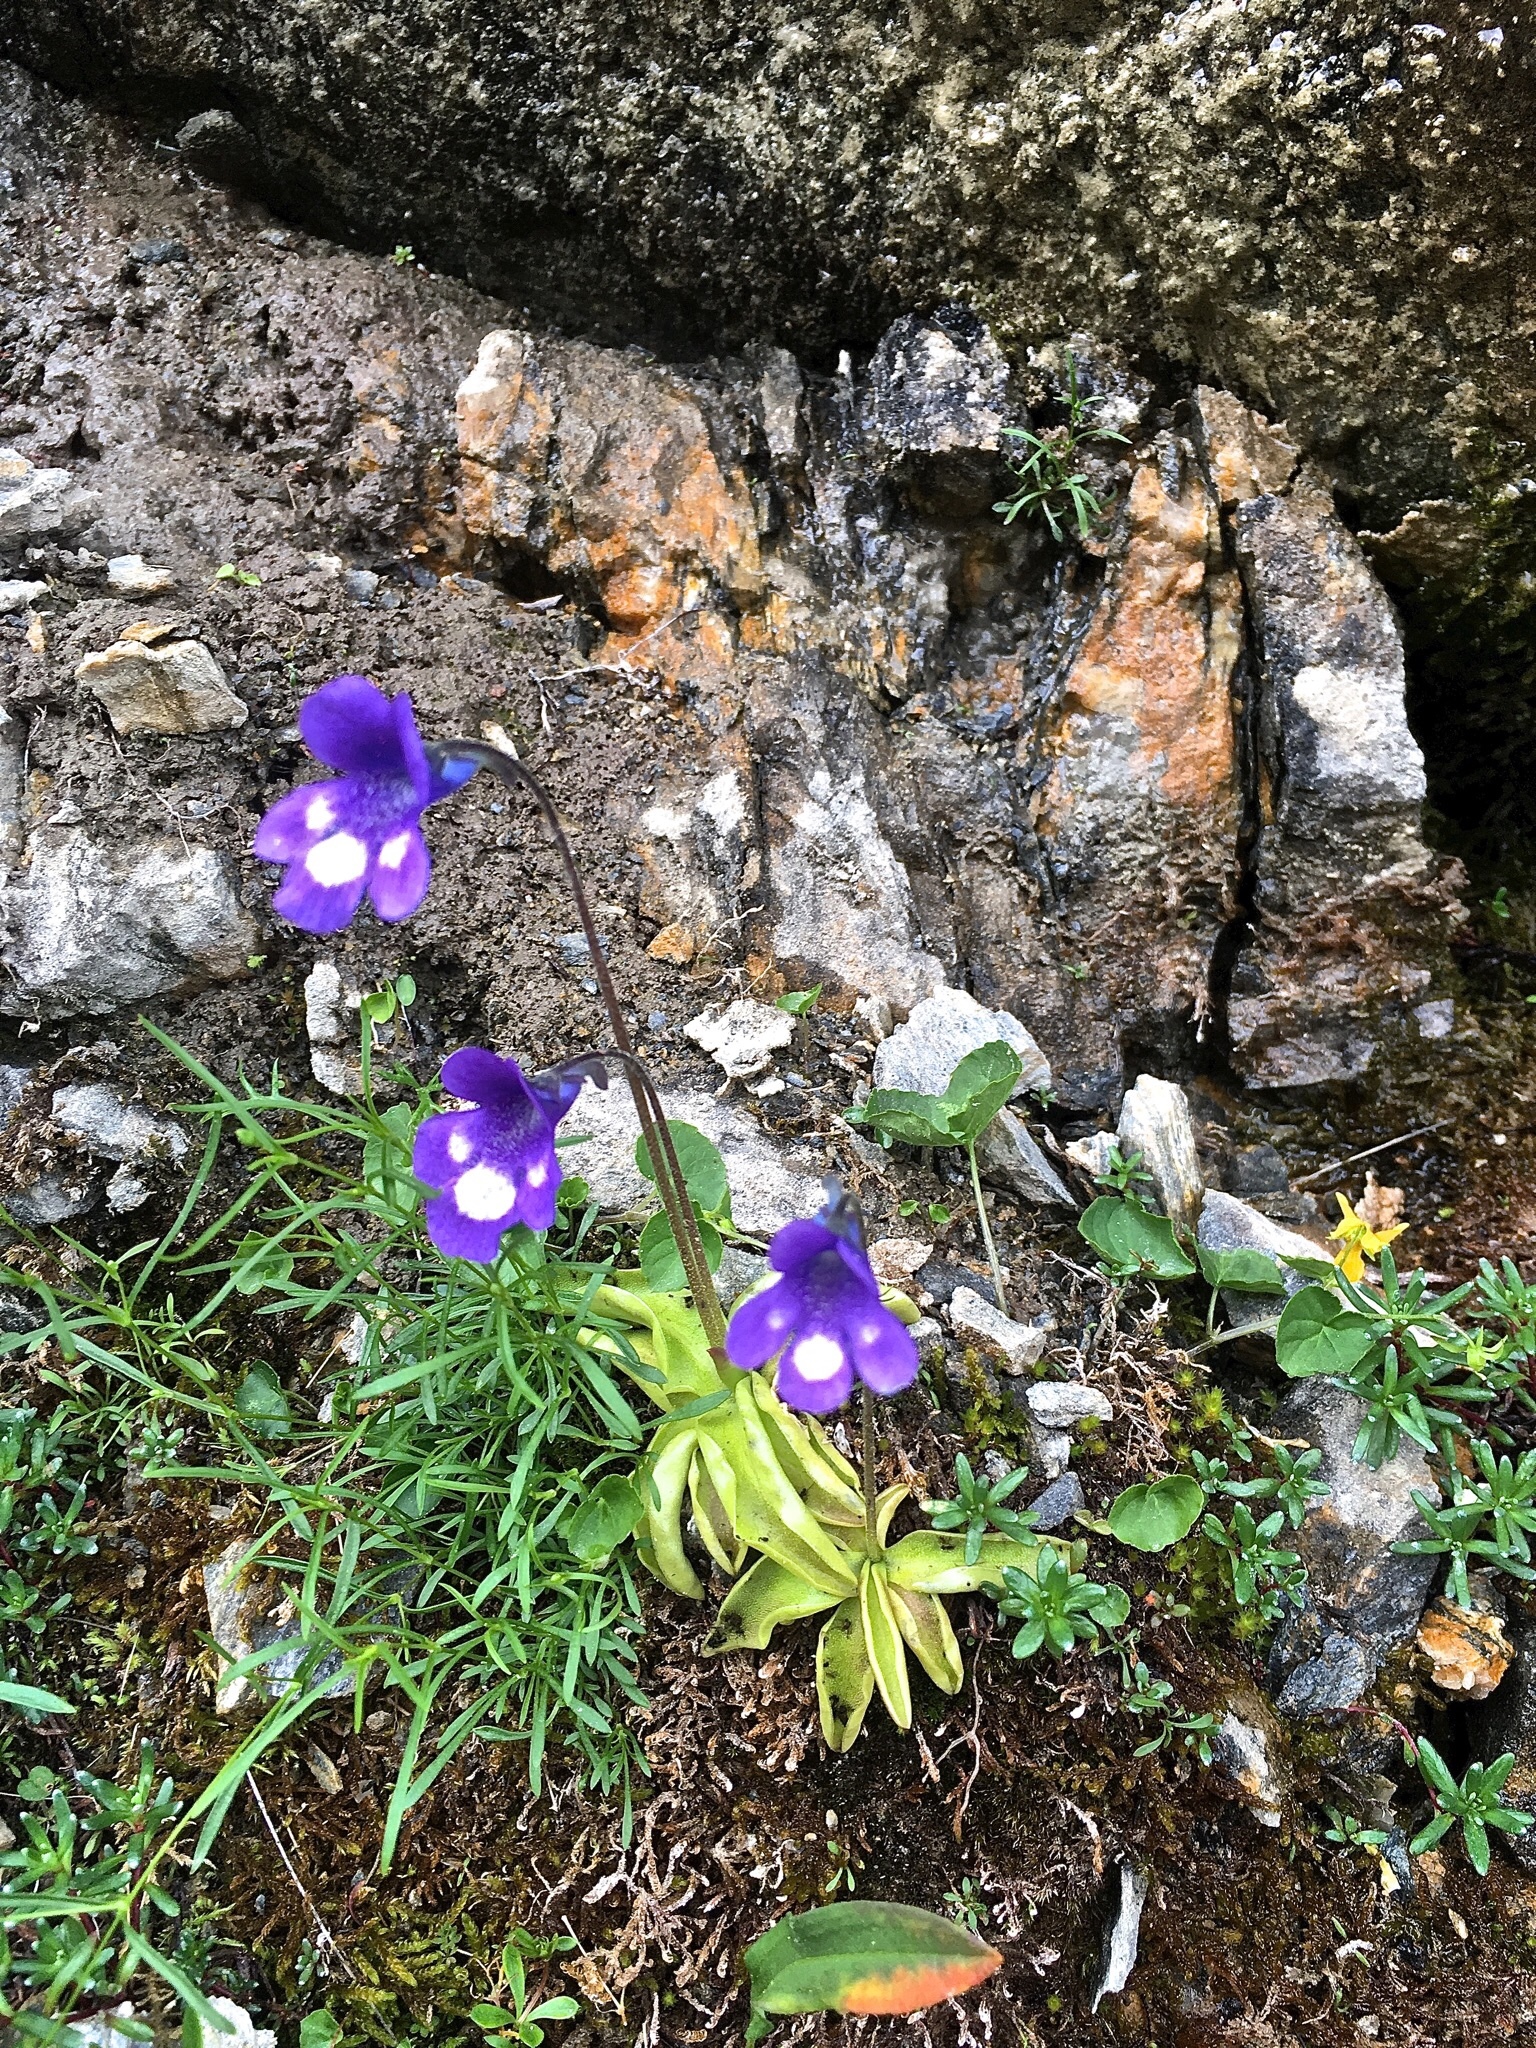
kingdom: Plantae
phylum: Tracheophyta
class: Magnoliopsida
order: Lamiales
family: Lentibulariaceae
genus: Pinguicula
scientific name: Pinguicula leptoceras
